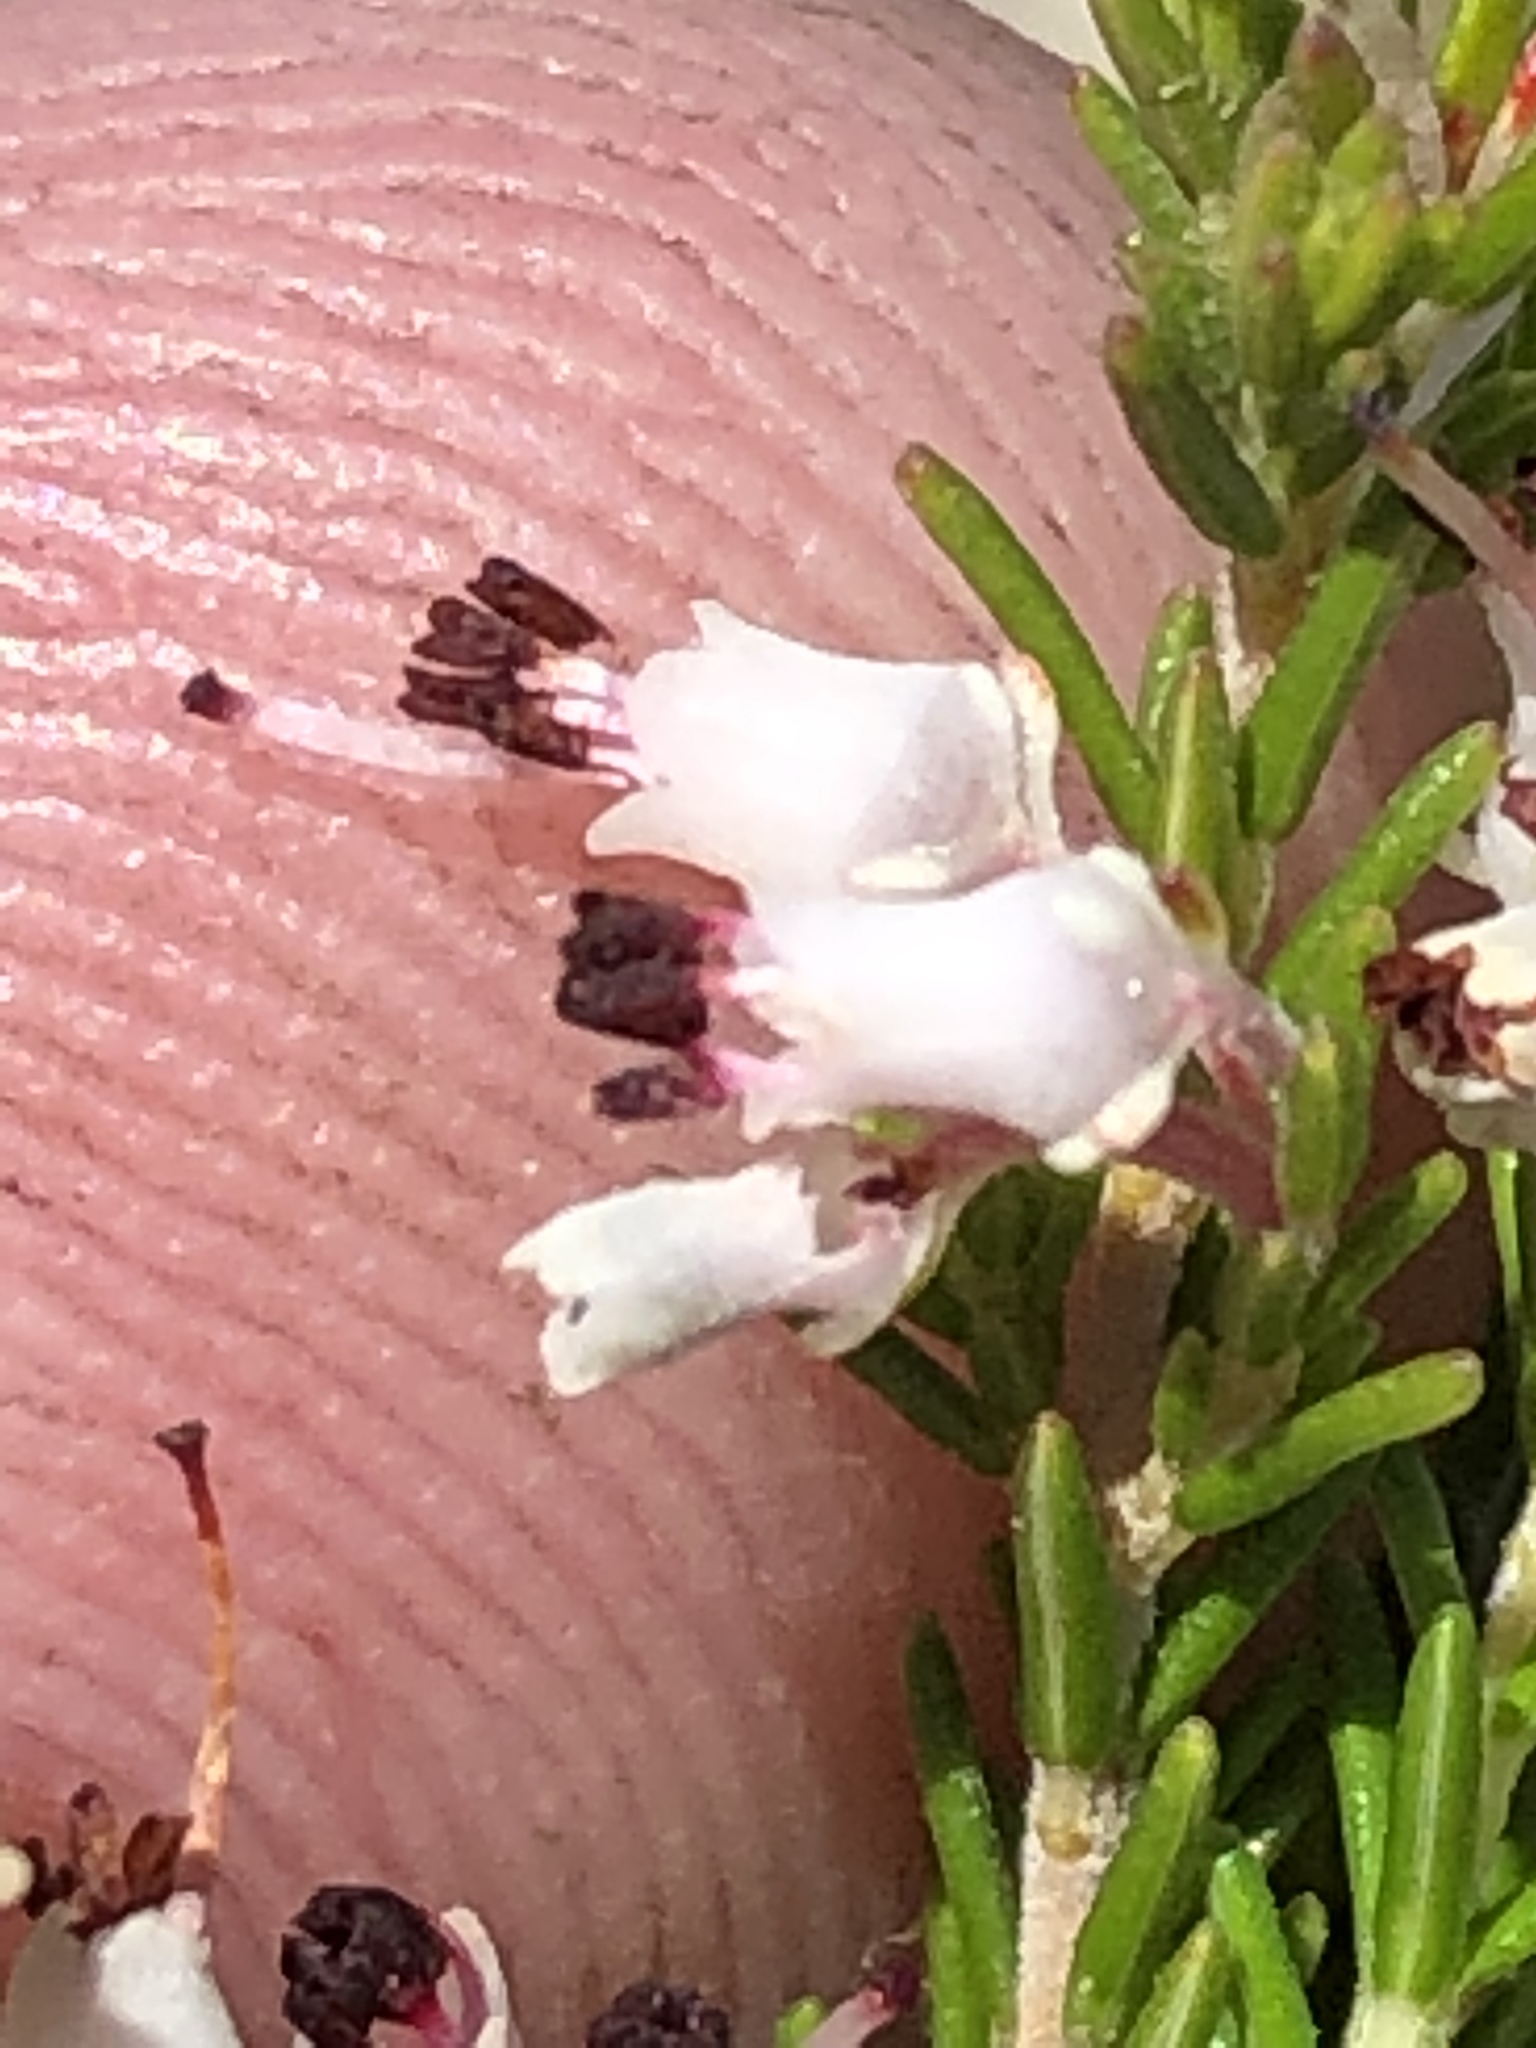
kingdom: Plantae
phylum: Tracheophyta
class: Magnoliopsida
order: Ericales
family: Ericaceae
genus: Erica
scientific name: Erica demissa
